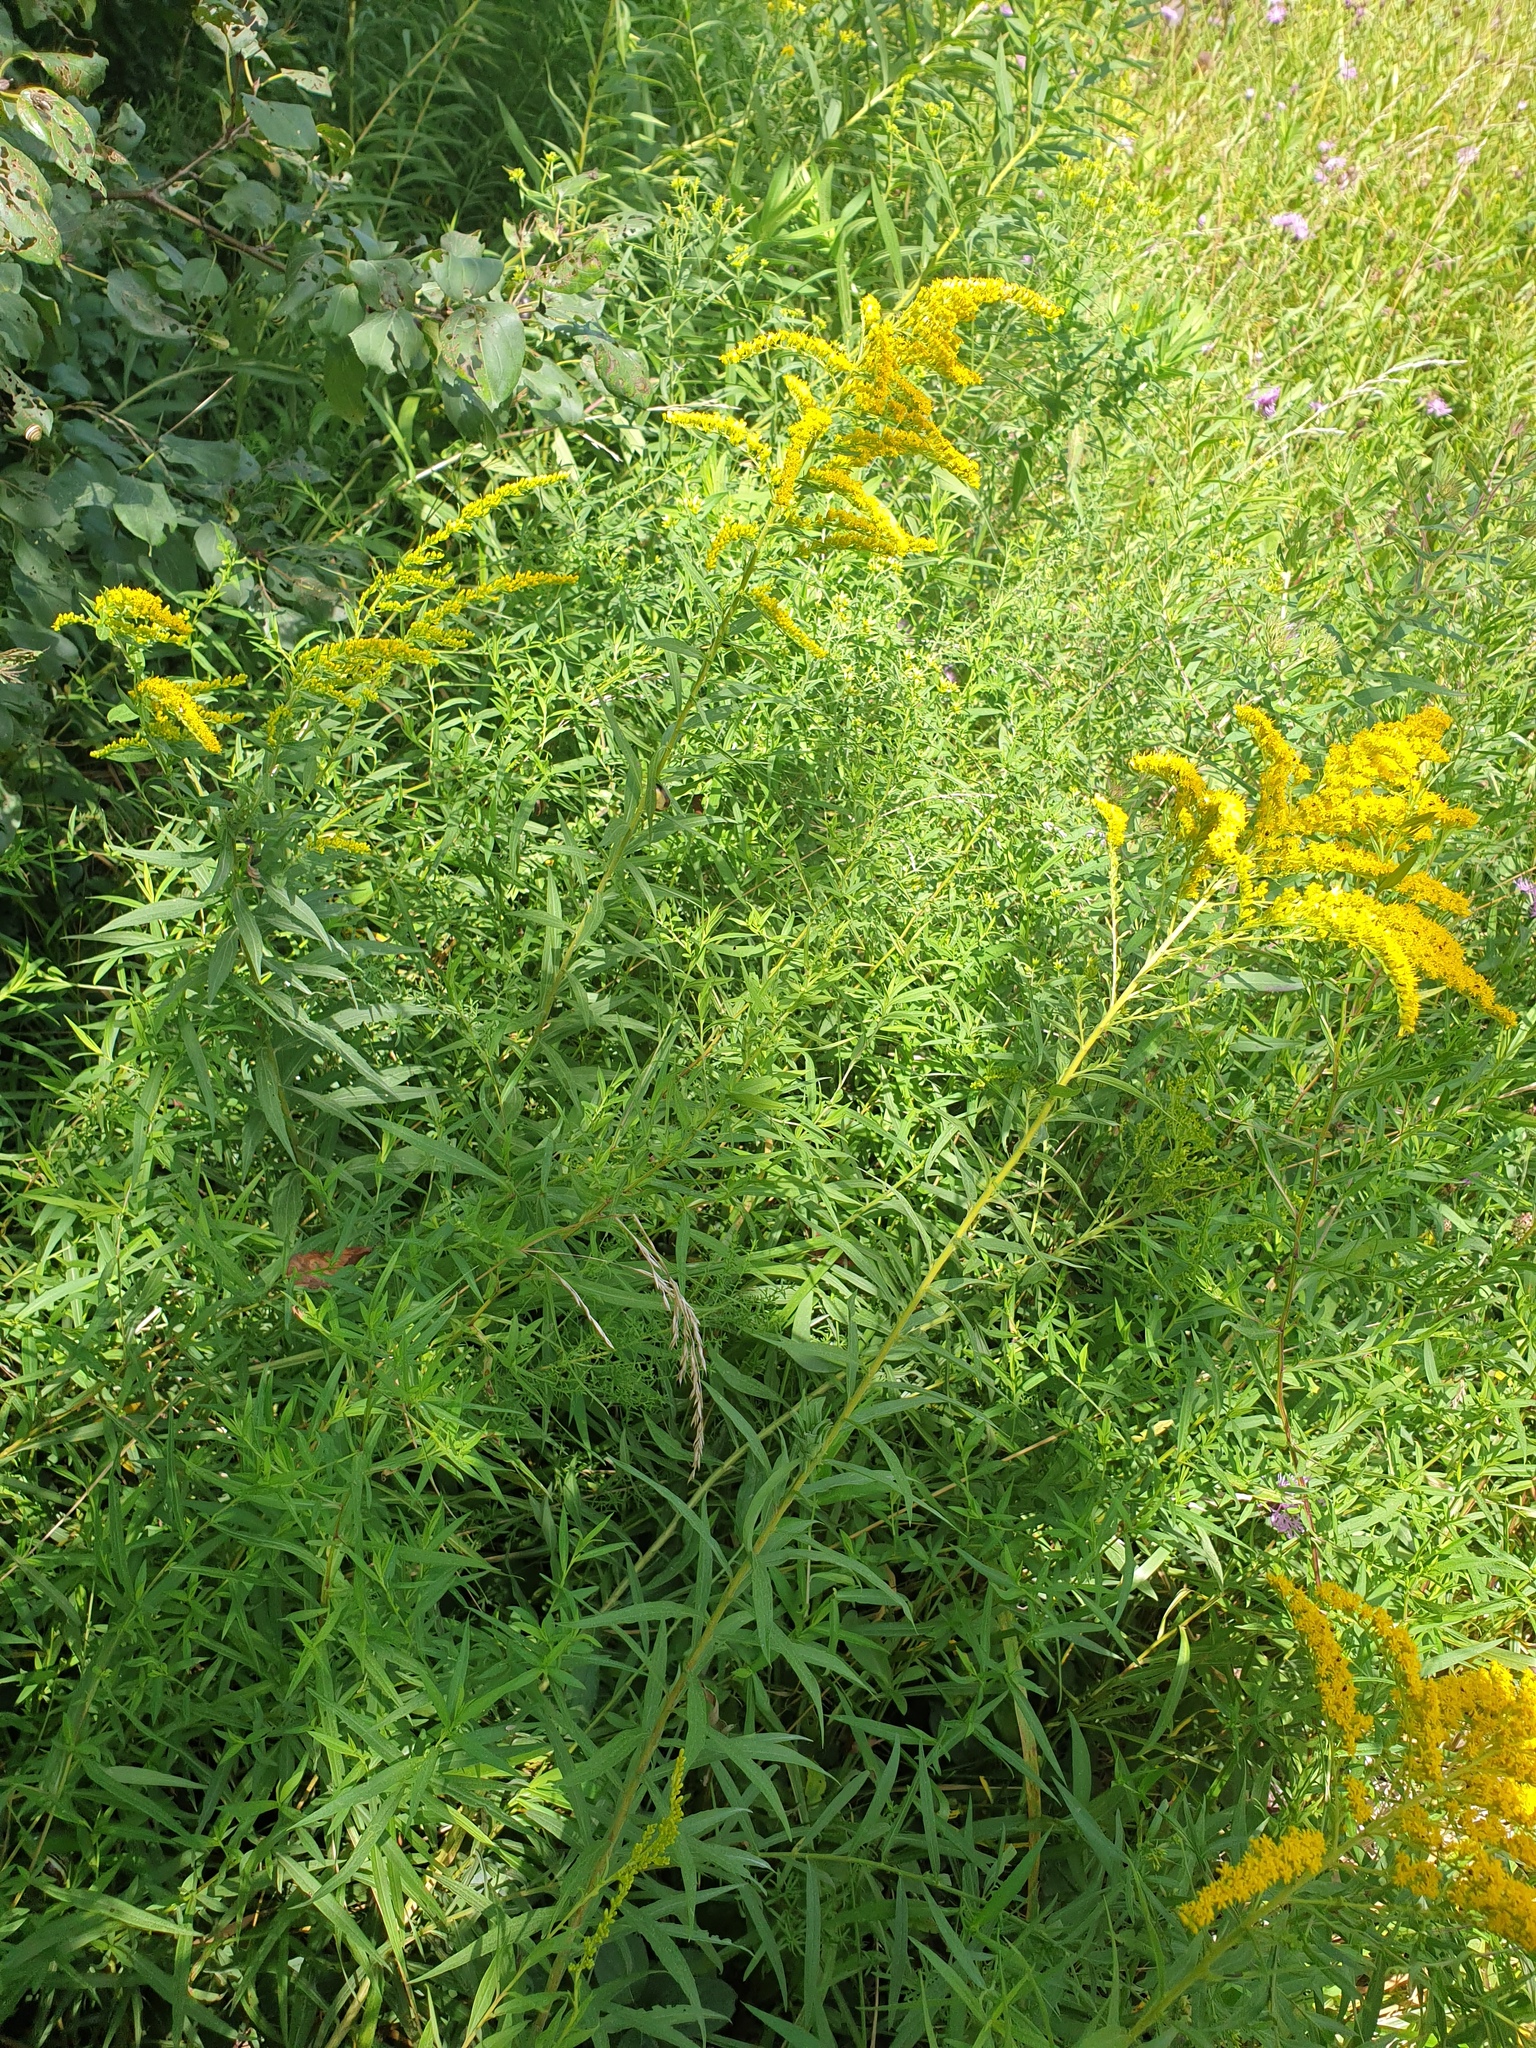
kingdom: Plantae
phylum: Tracheophyta
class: Magnoliopsida
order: Asterales
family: Asteraceae
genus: Solidago
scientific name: Solidago canadensis
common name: Canada goldenrod
